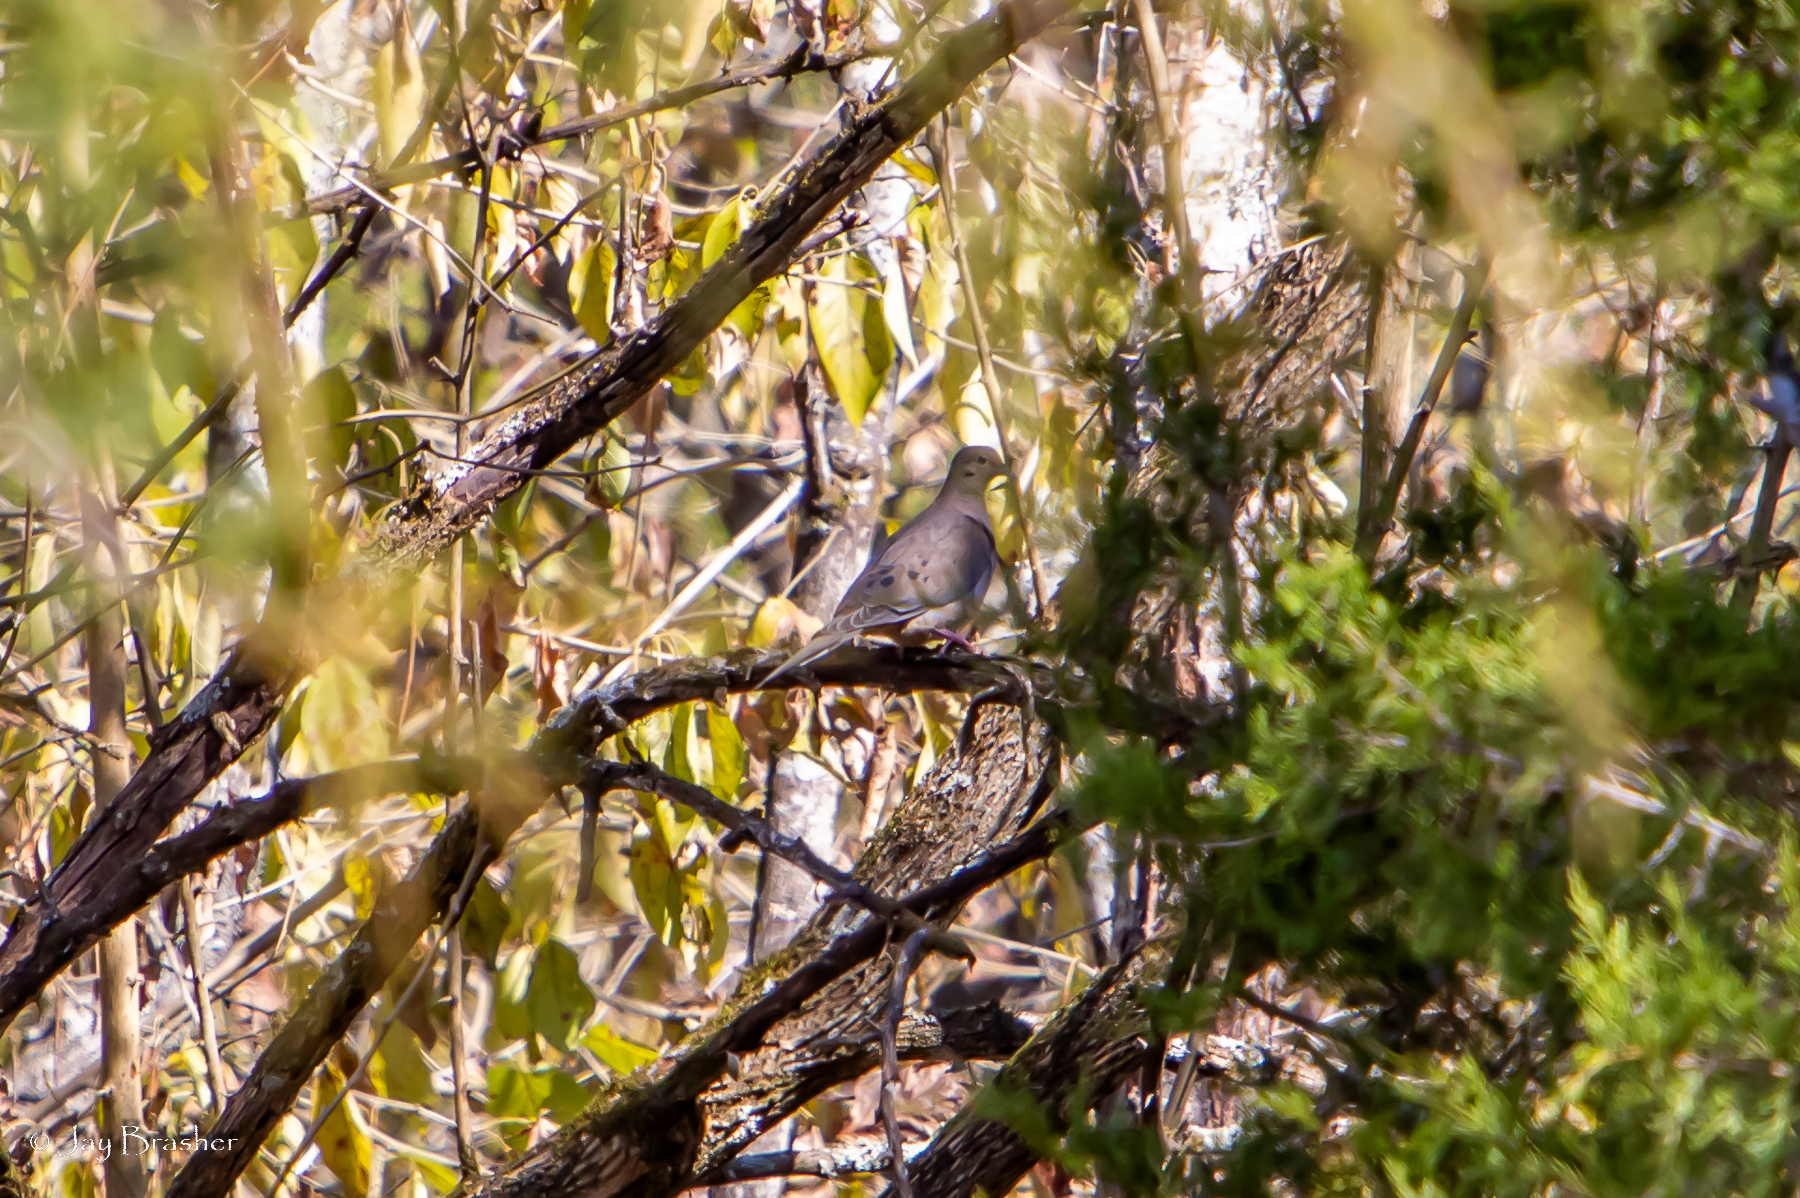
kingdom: Animalia
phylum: Chordata
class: Aves
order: Columbiformes
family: Columbidae
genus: Zenaida
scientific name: Zenaida macroura
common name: Mourning dove
